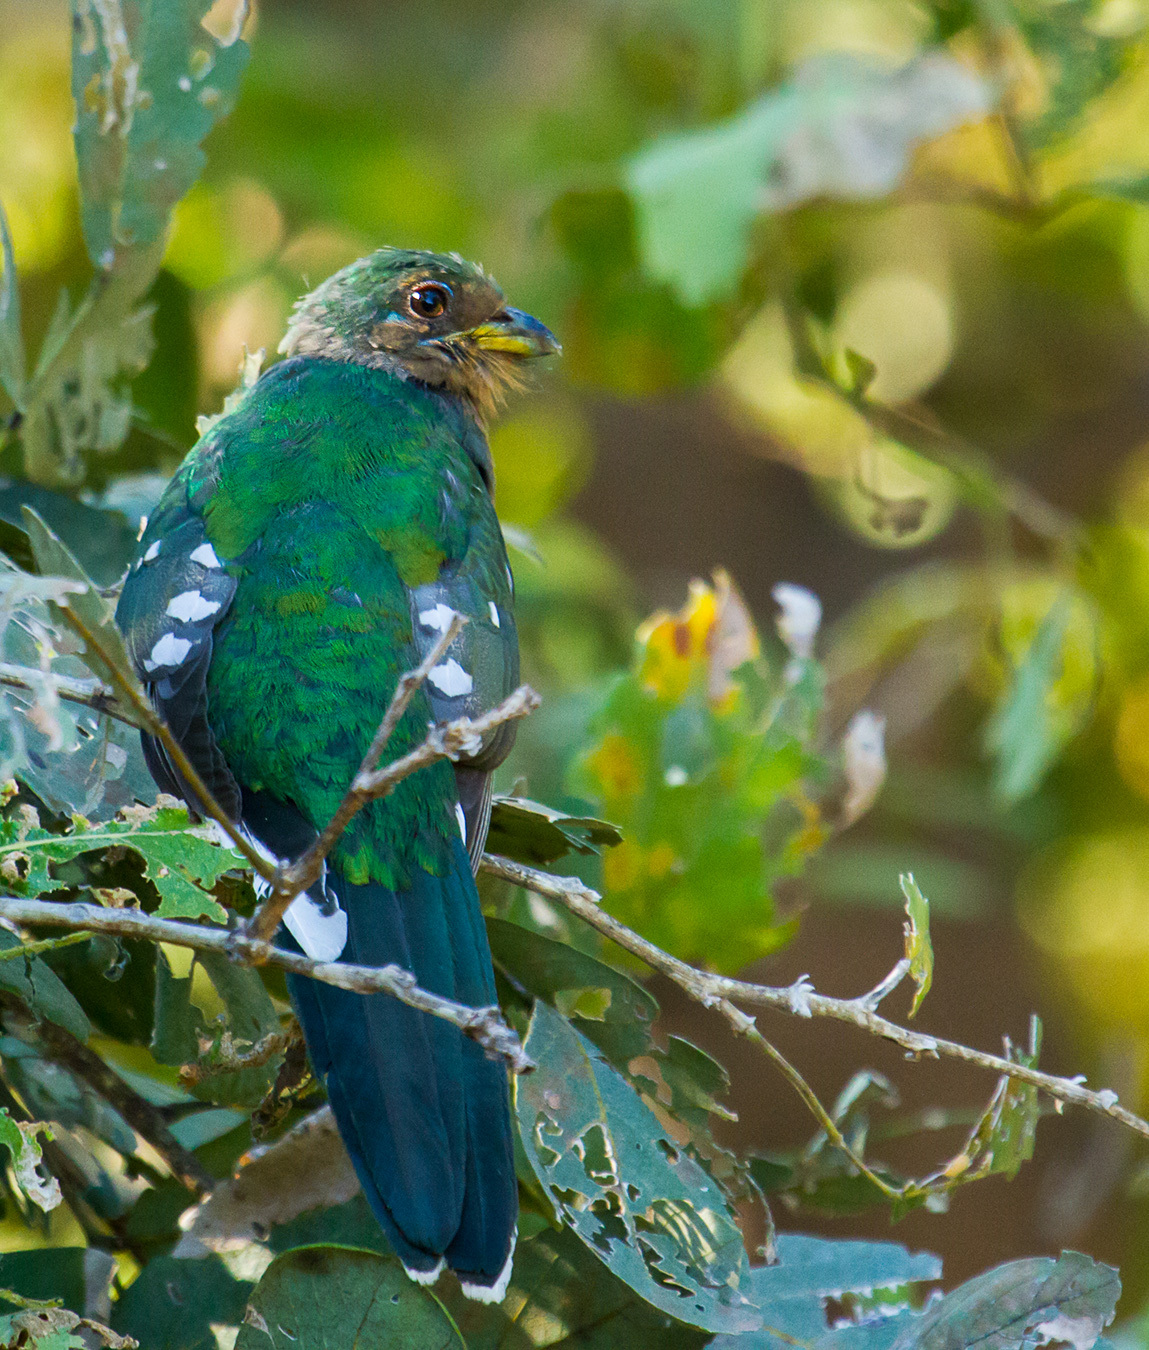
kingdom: Animalia
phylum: Chordata
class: Aves
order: Trogoniformes
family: Trogonidae
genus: Apaloderma
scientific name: Apaloderma narina
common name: Narina trogon
